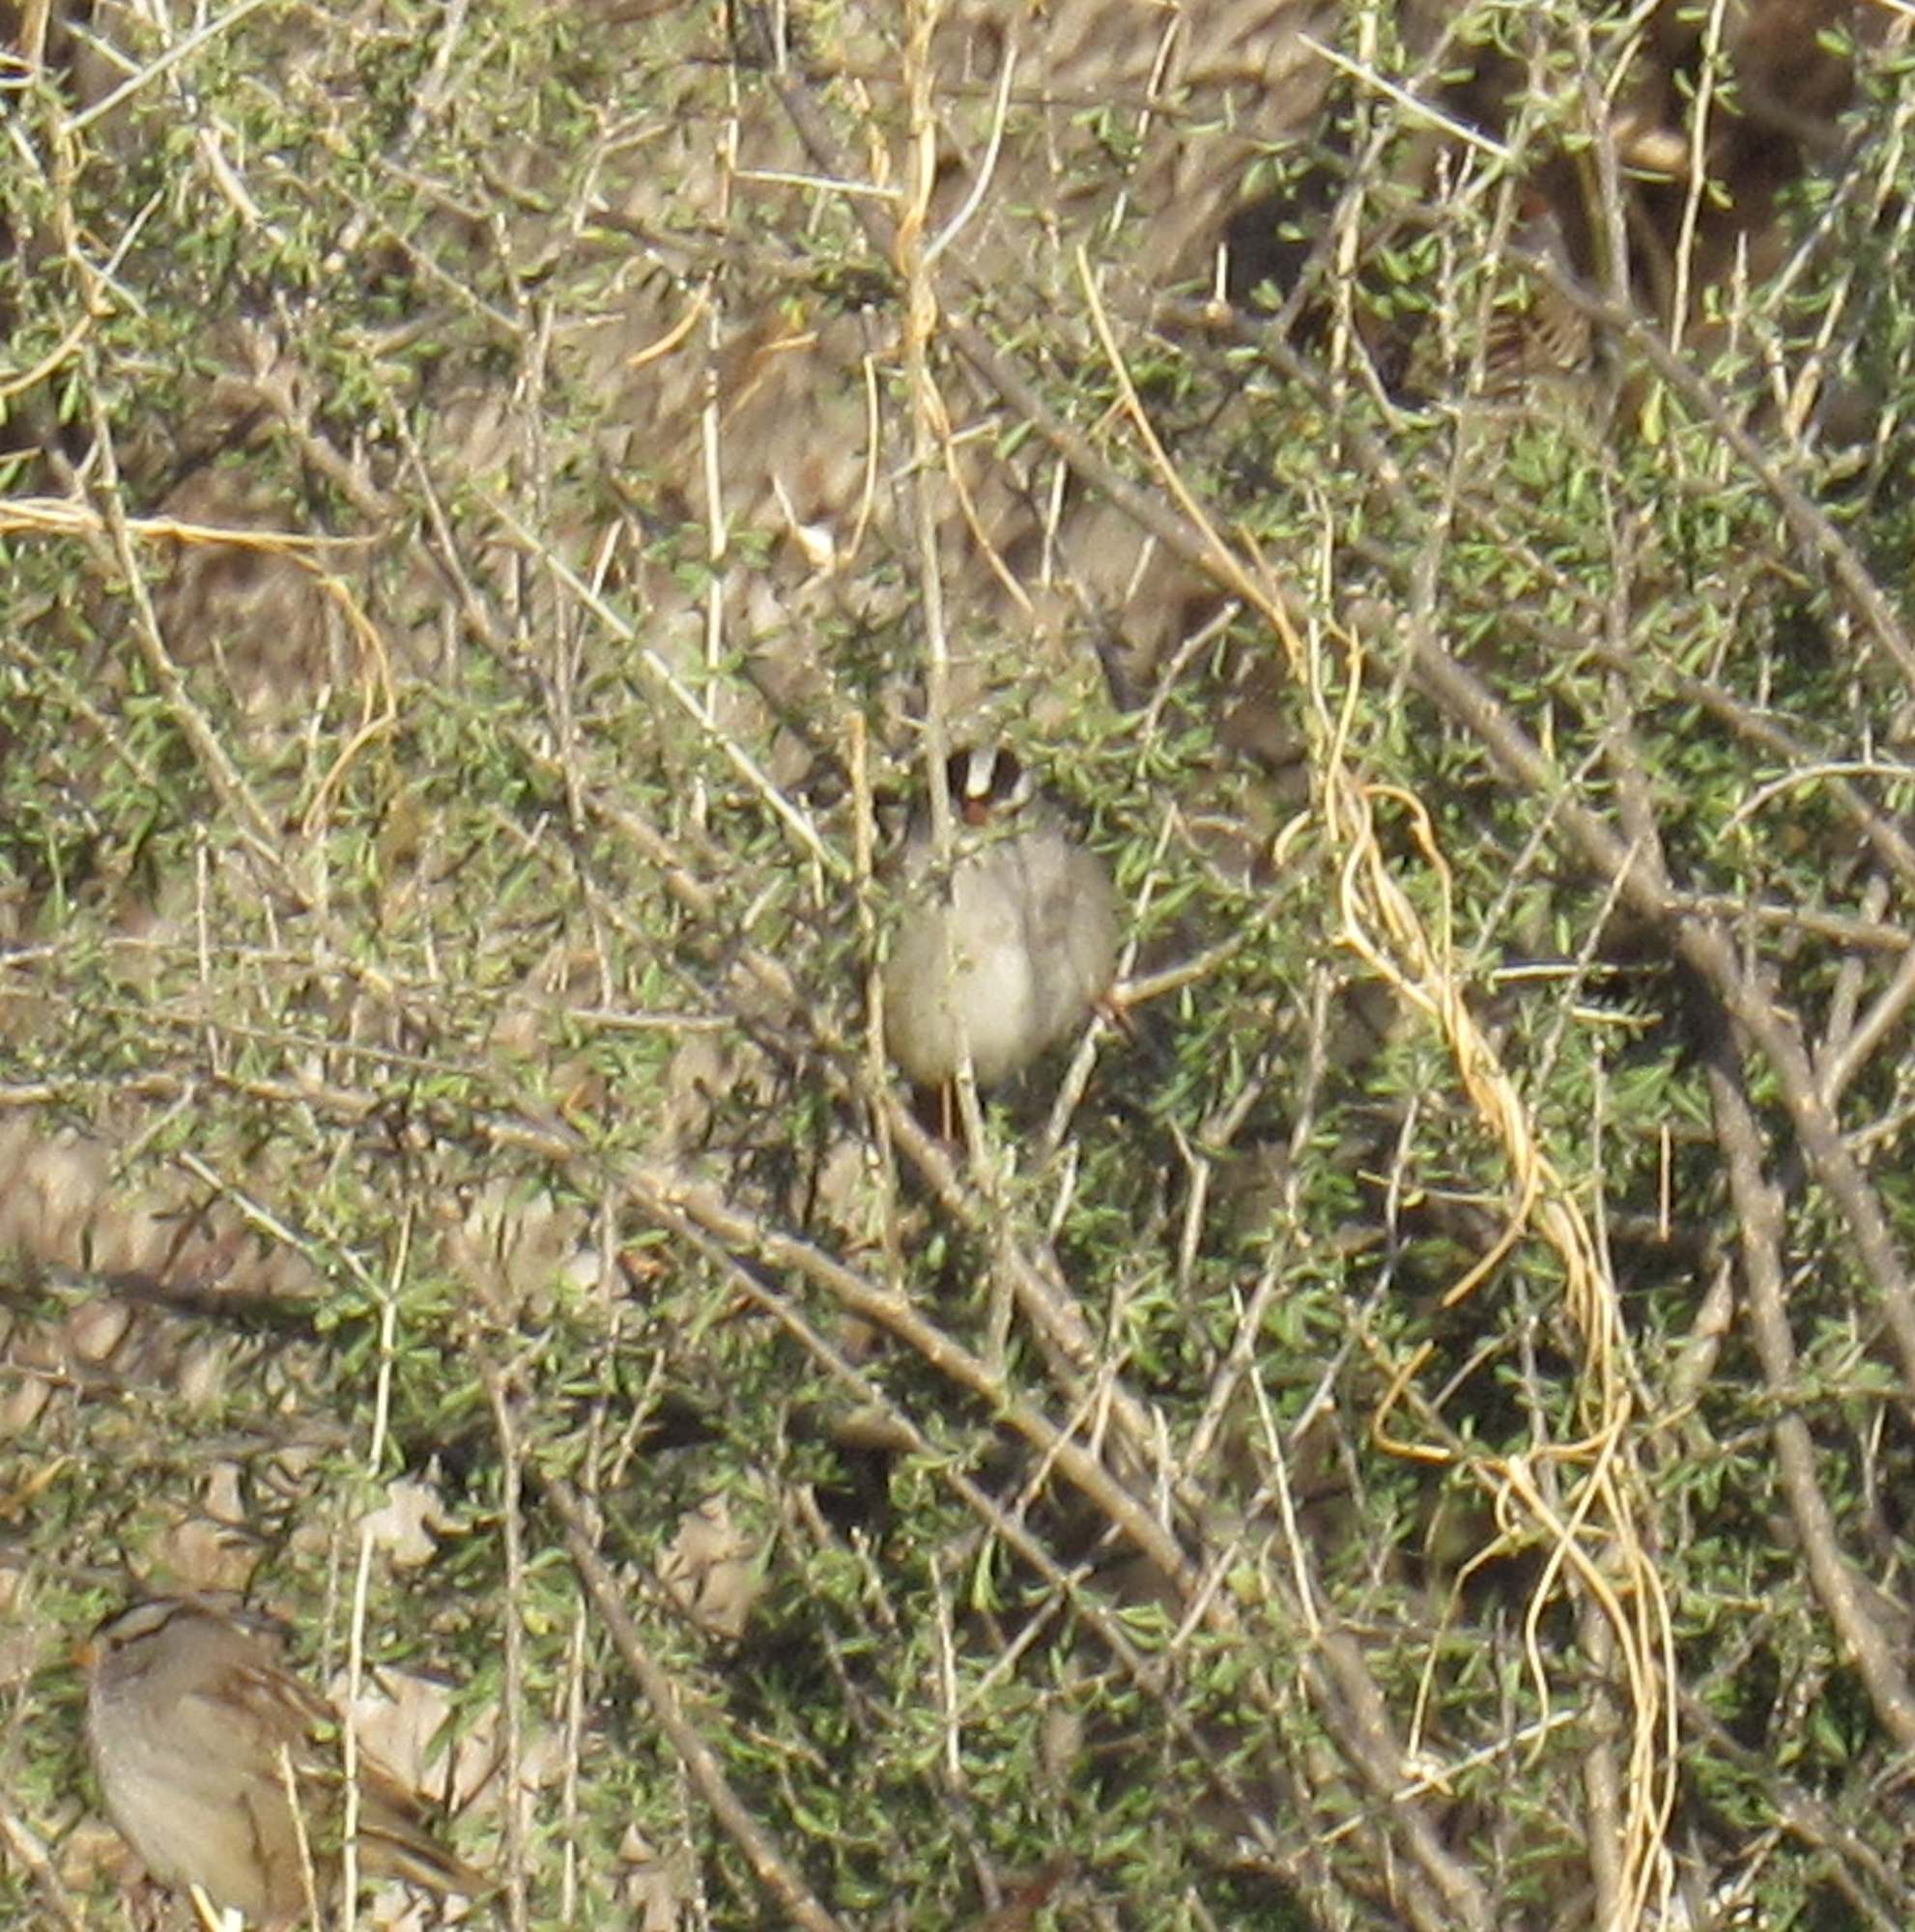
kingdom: Animalia
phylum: Chordata
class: Aves
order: Passeriformes
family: Passerellidae
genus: Zonotrichia
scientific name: Zonotrichia leucophrys
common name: White-crowned sparrow
